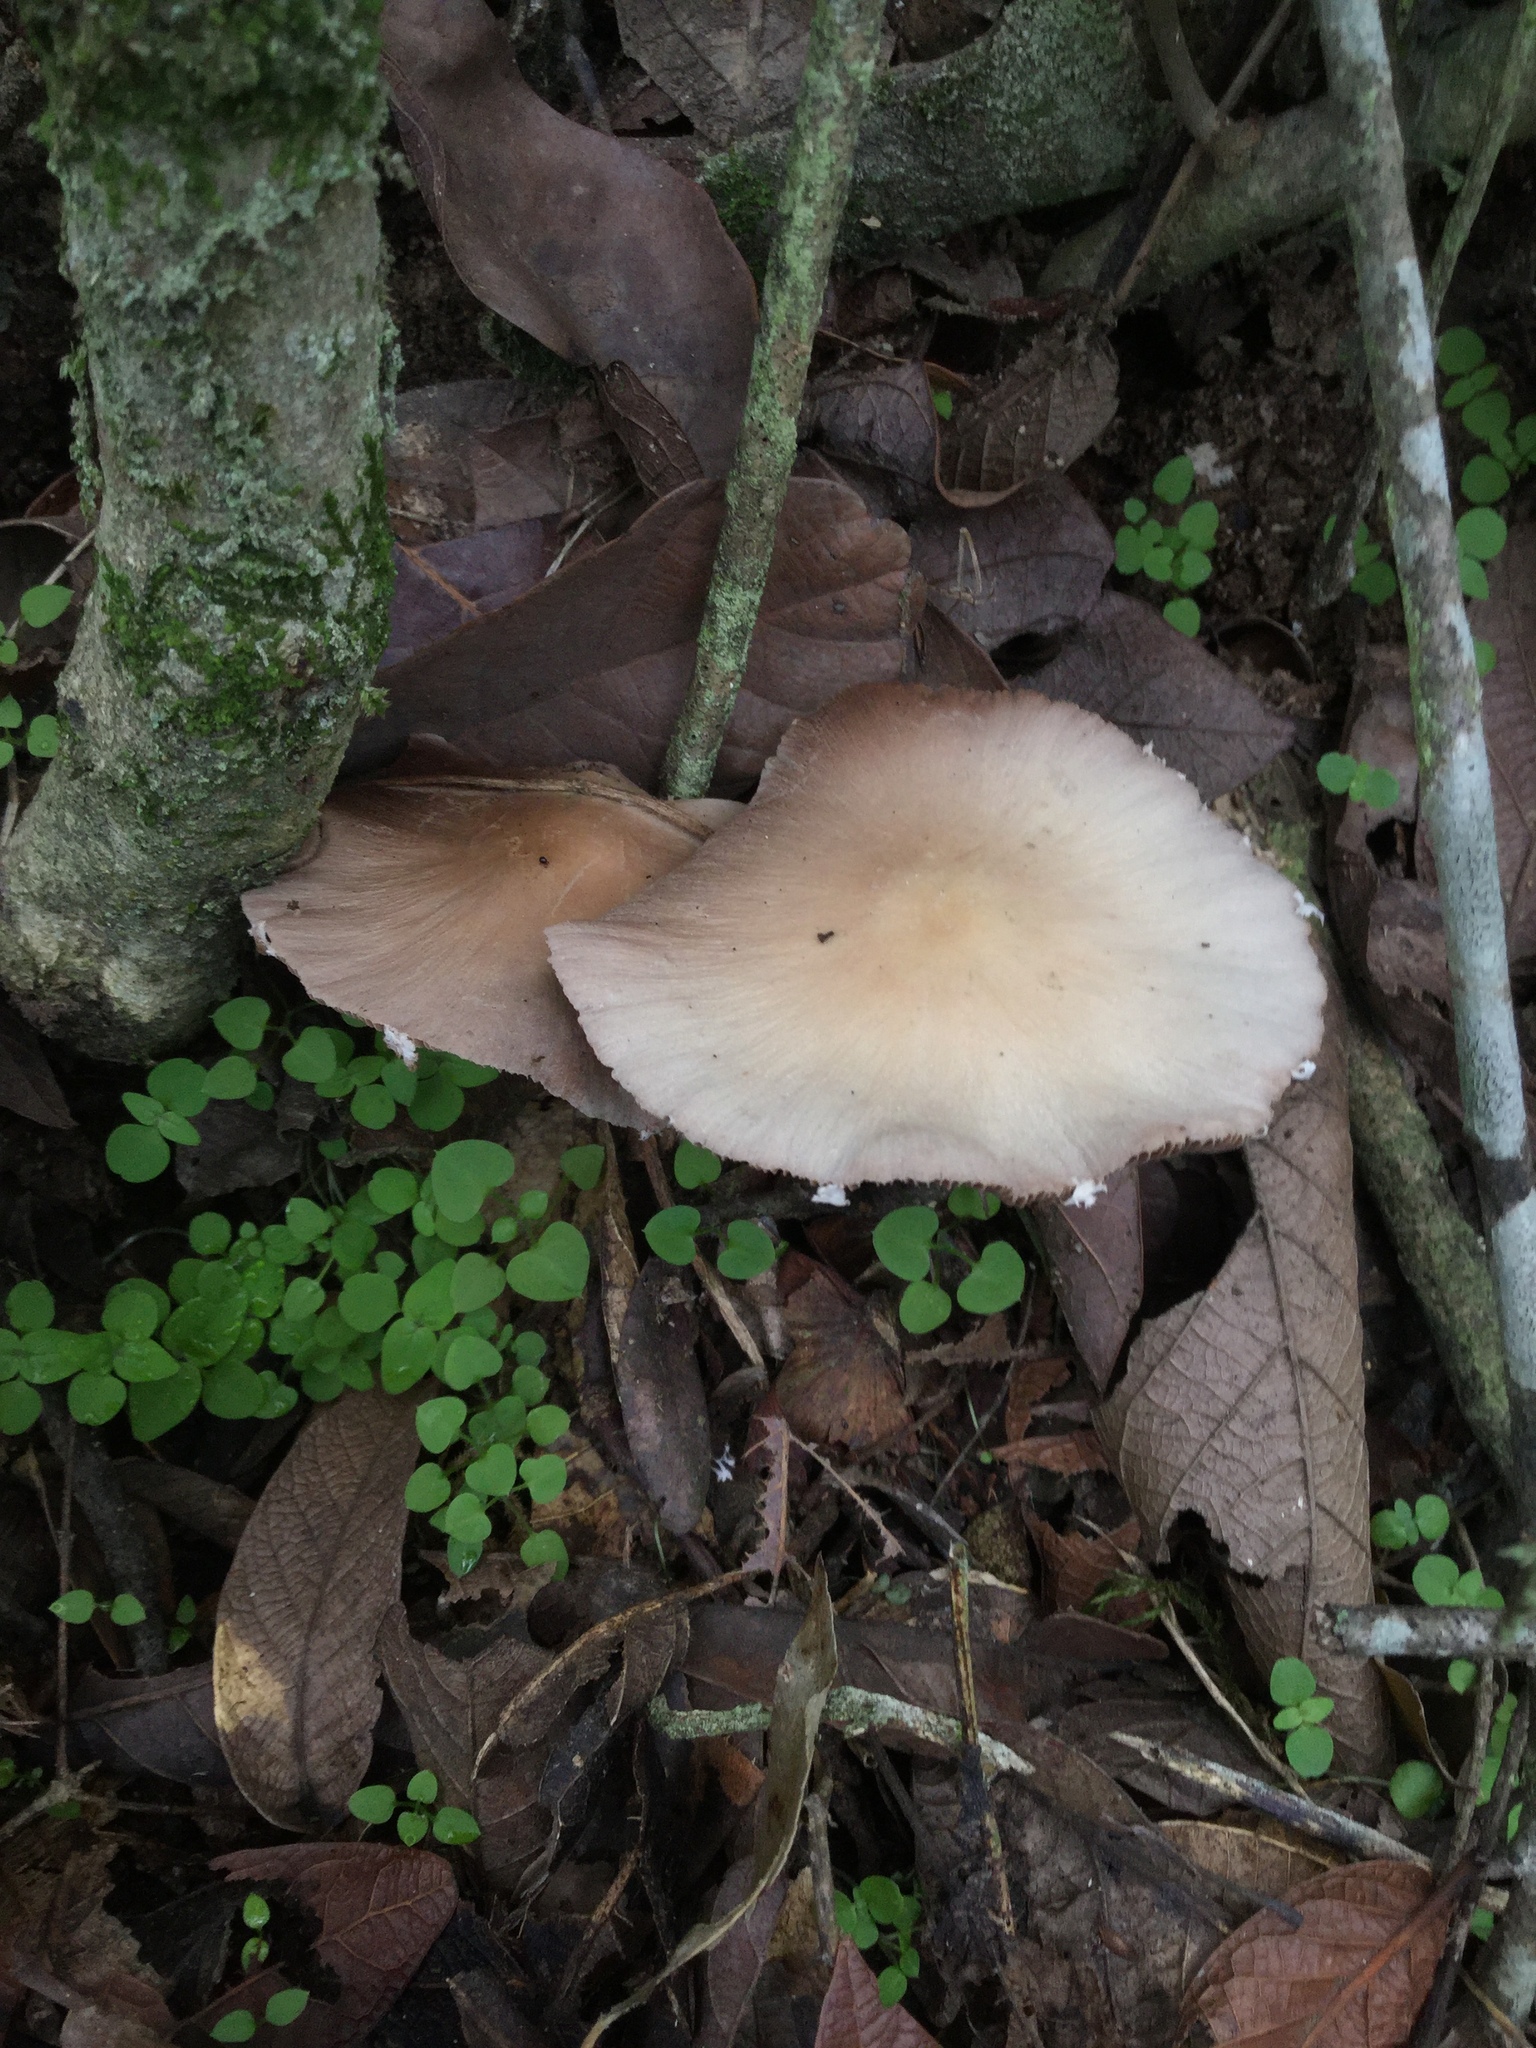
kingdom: Fungi
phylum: Basidiomycota
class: Agaricomycetes
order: Agaricales
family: Psathyrellaceae
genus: Candolleomyces
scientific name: Candolleomyces candolleanus
